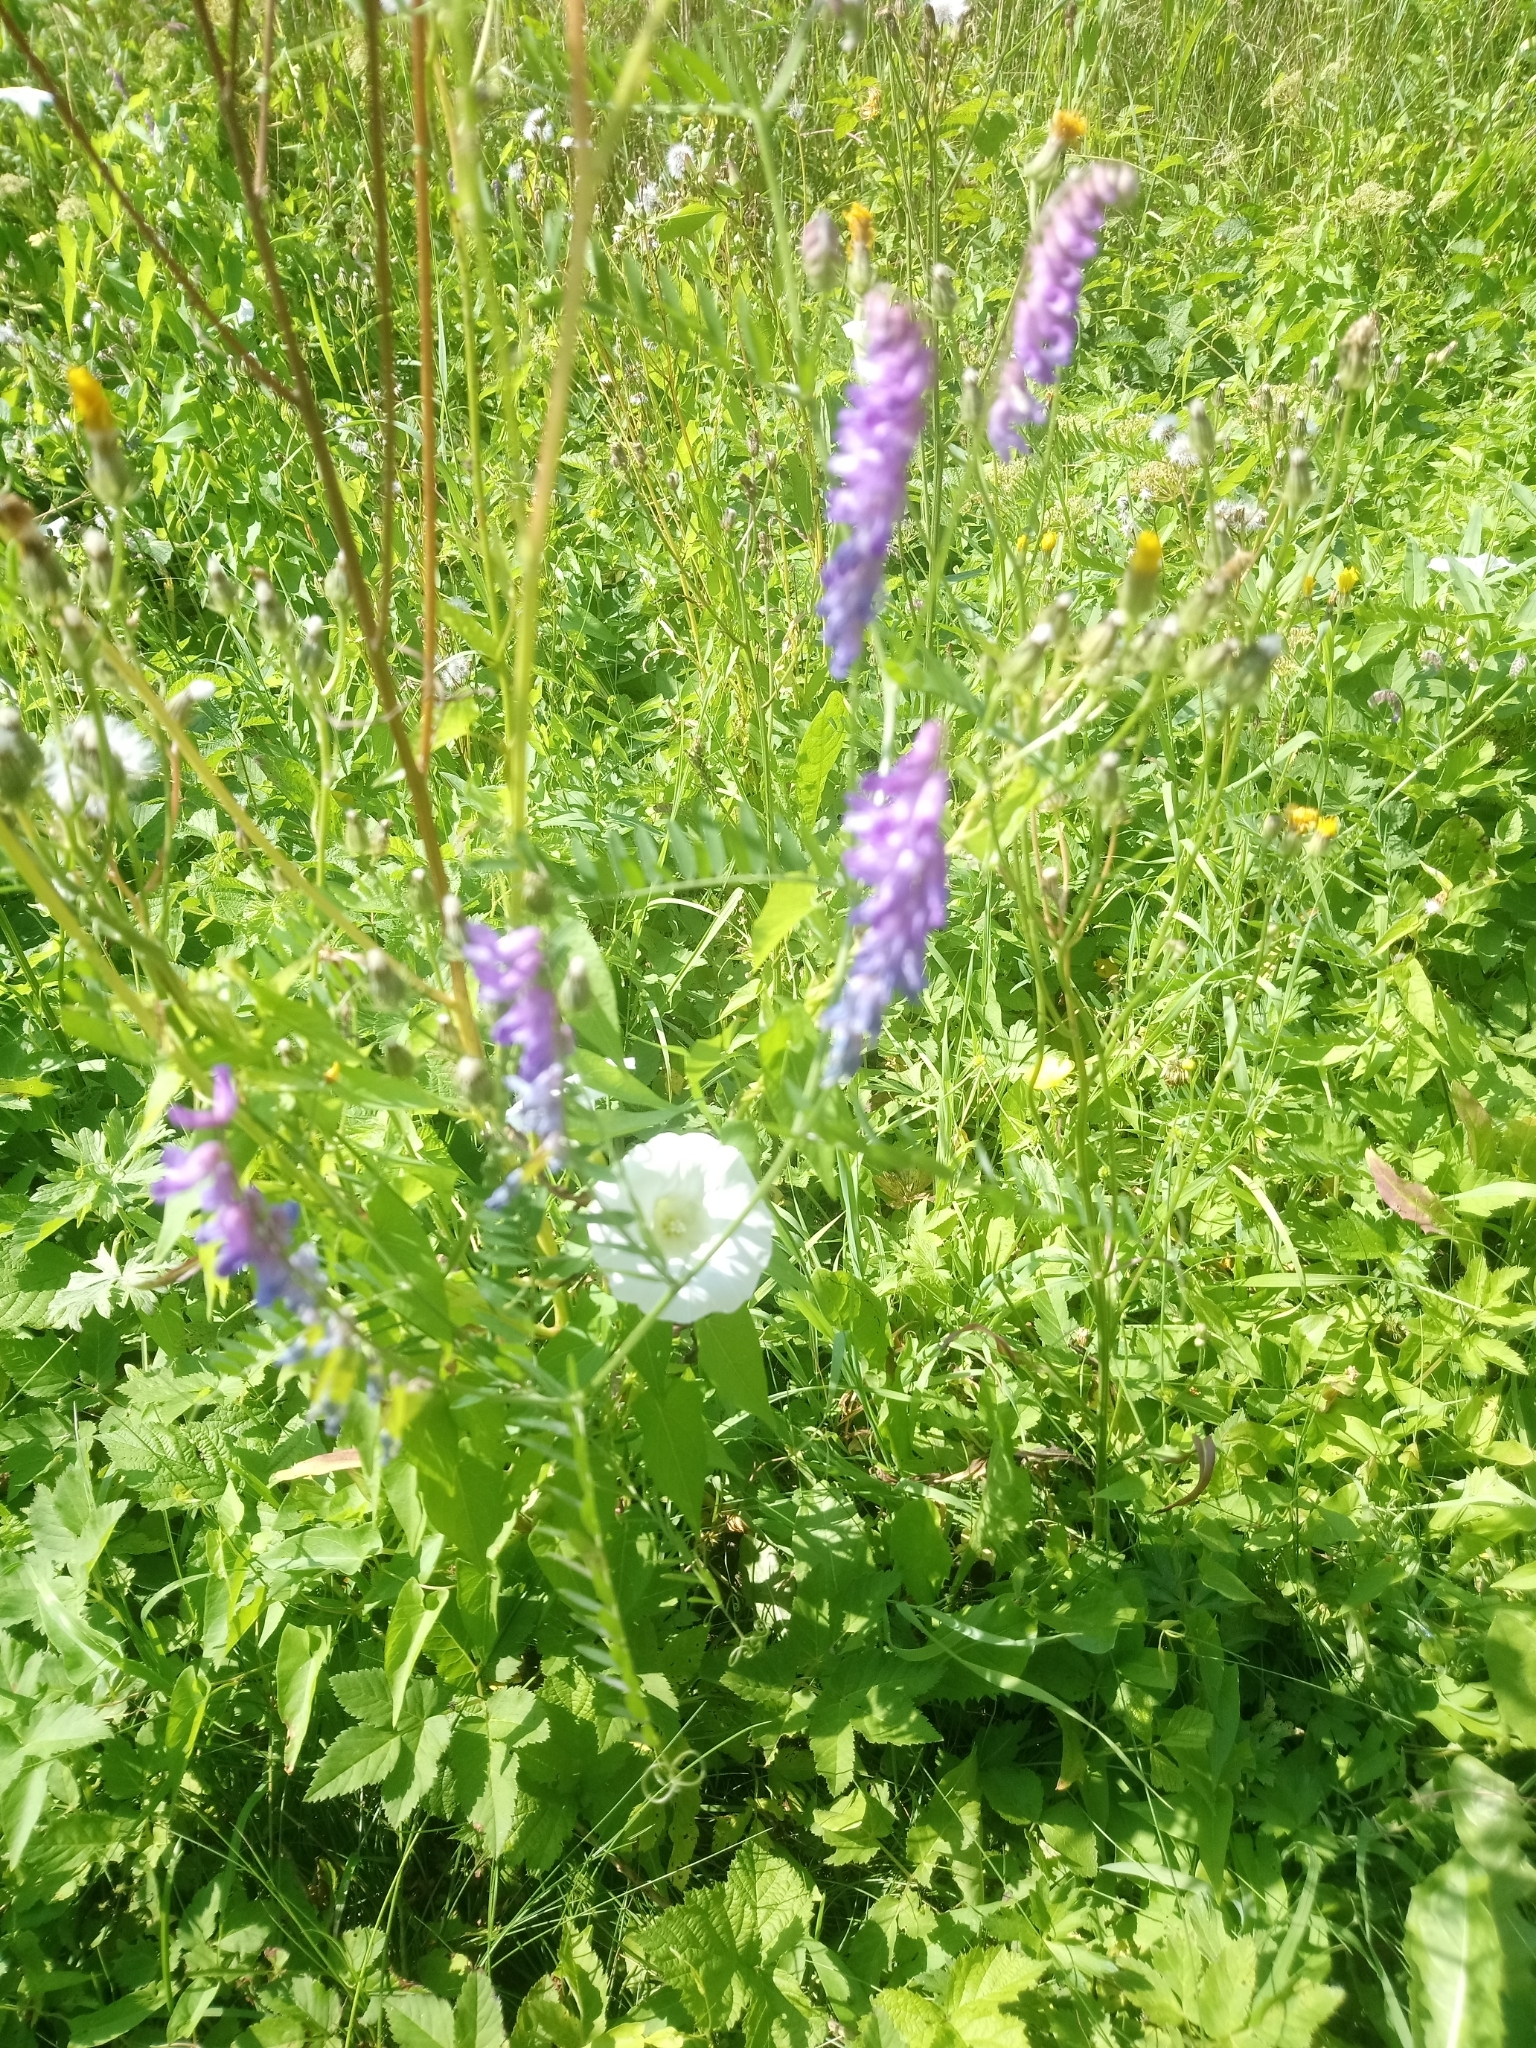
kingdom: Plantae
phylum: Tracheophyta
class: Magnoliopsida
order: Fabales
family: Fabaceae
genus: Vicia
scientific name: Vicia cracca
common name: Bird vetch
